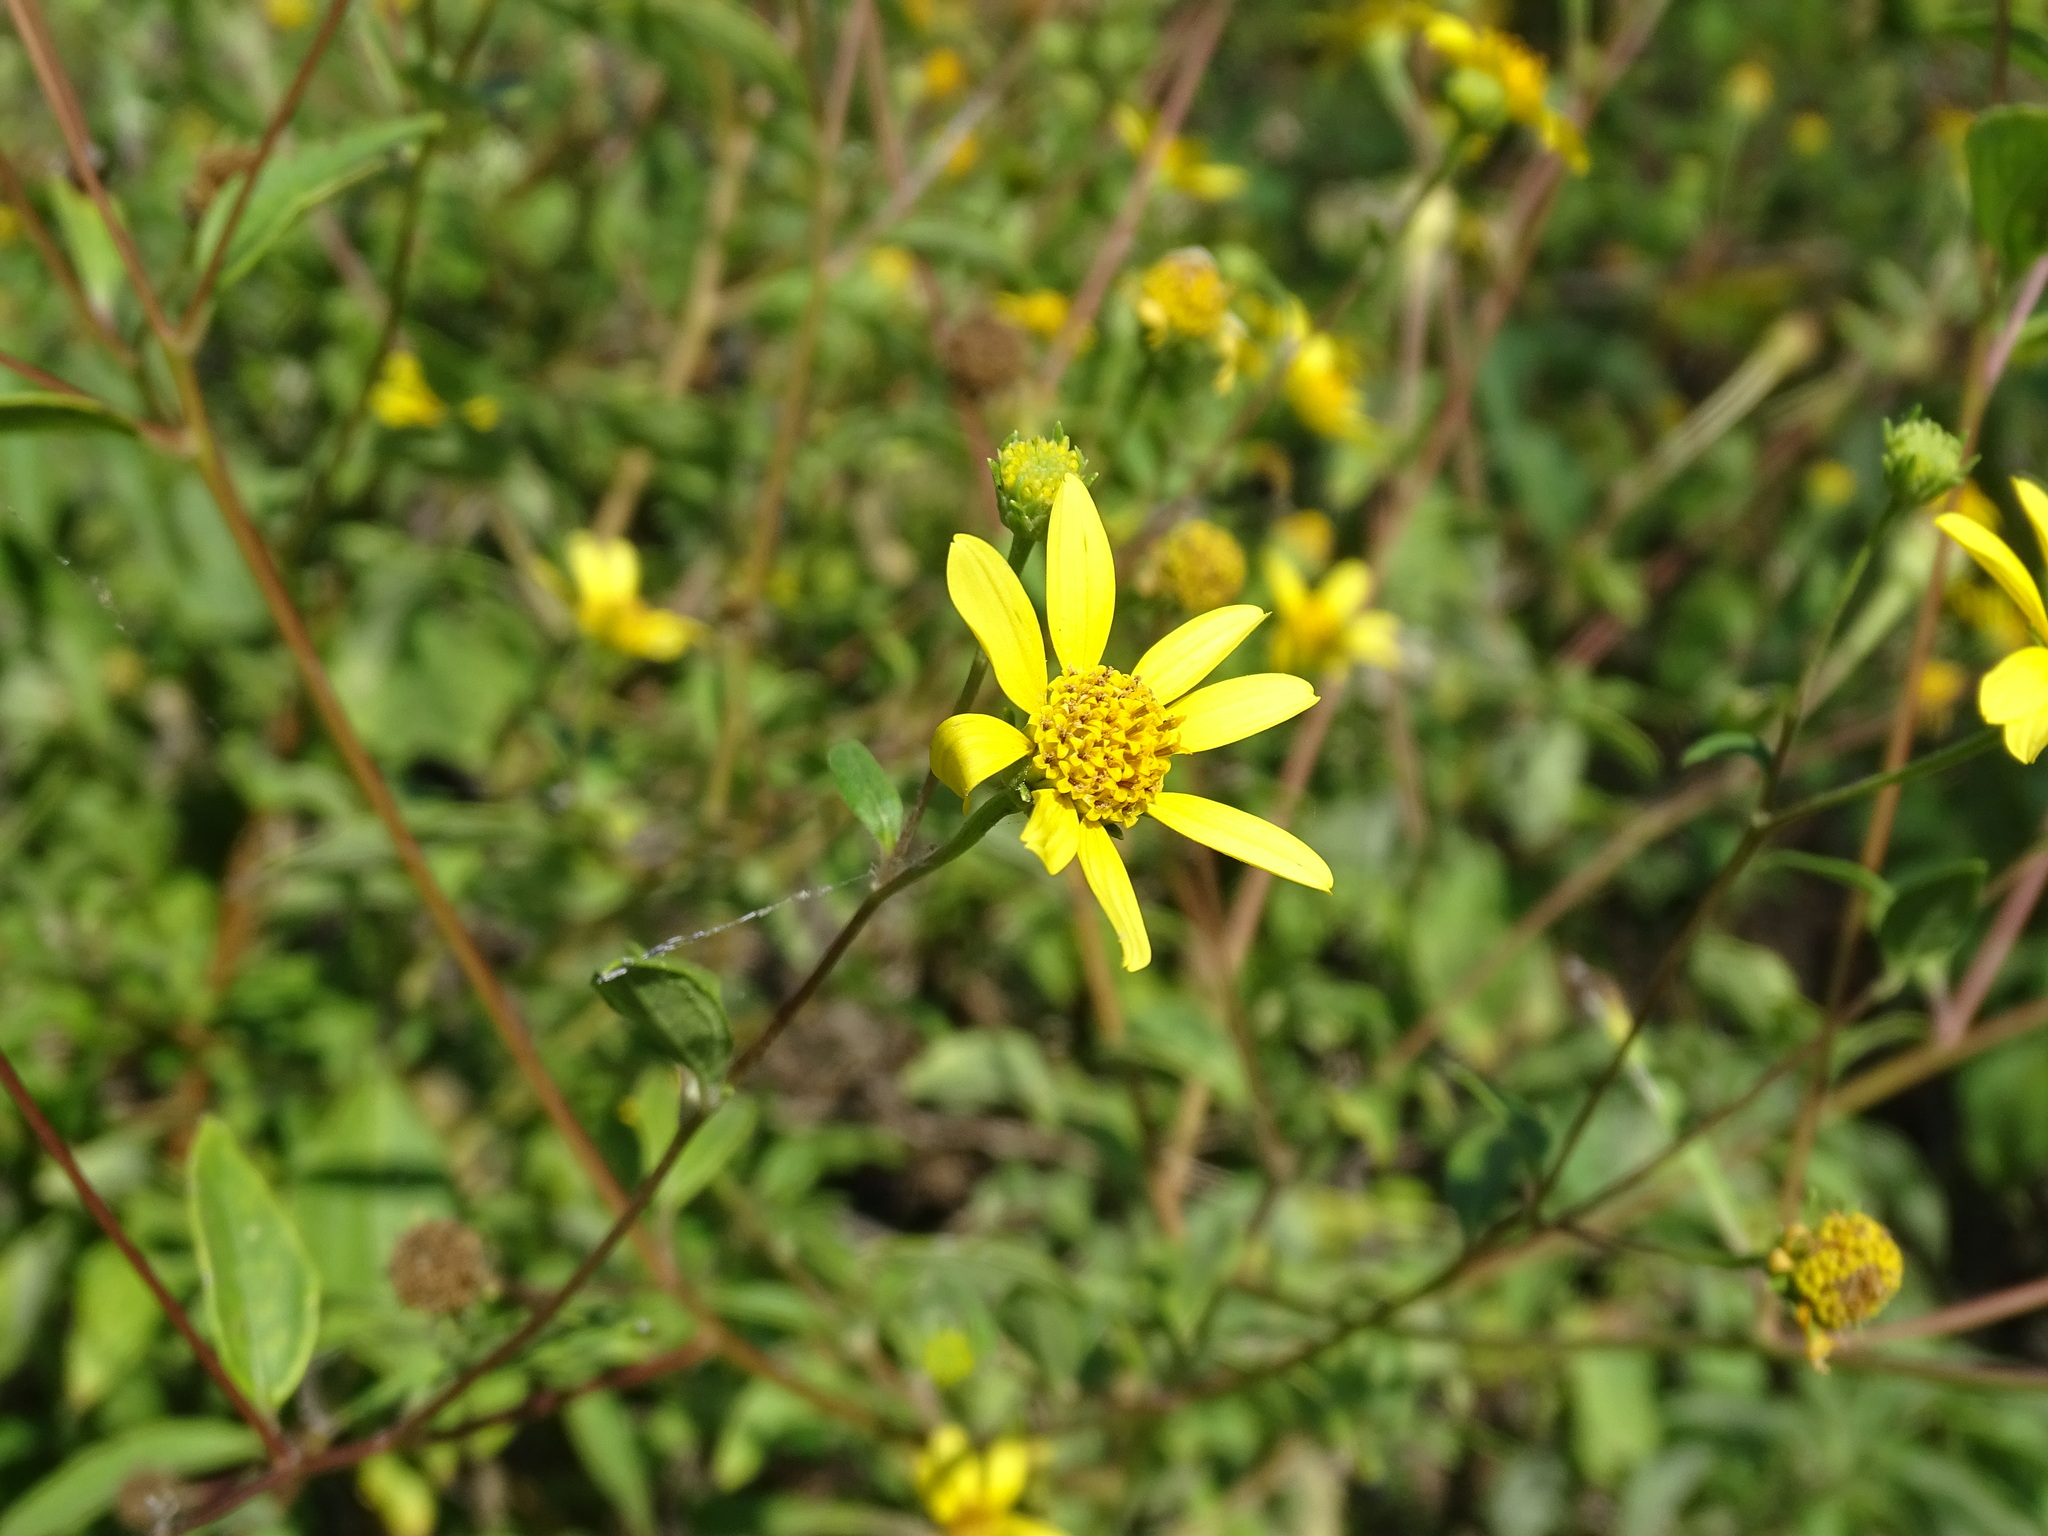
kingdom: Plantae
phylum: Tracheophyta
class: Magnoliopsida
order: Asterales
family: Asteraceae
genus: Viguiera
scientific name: Viguiera dentata
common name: Toothleaf
